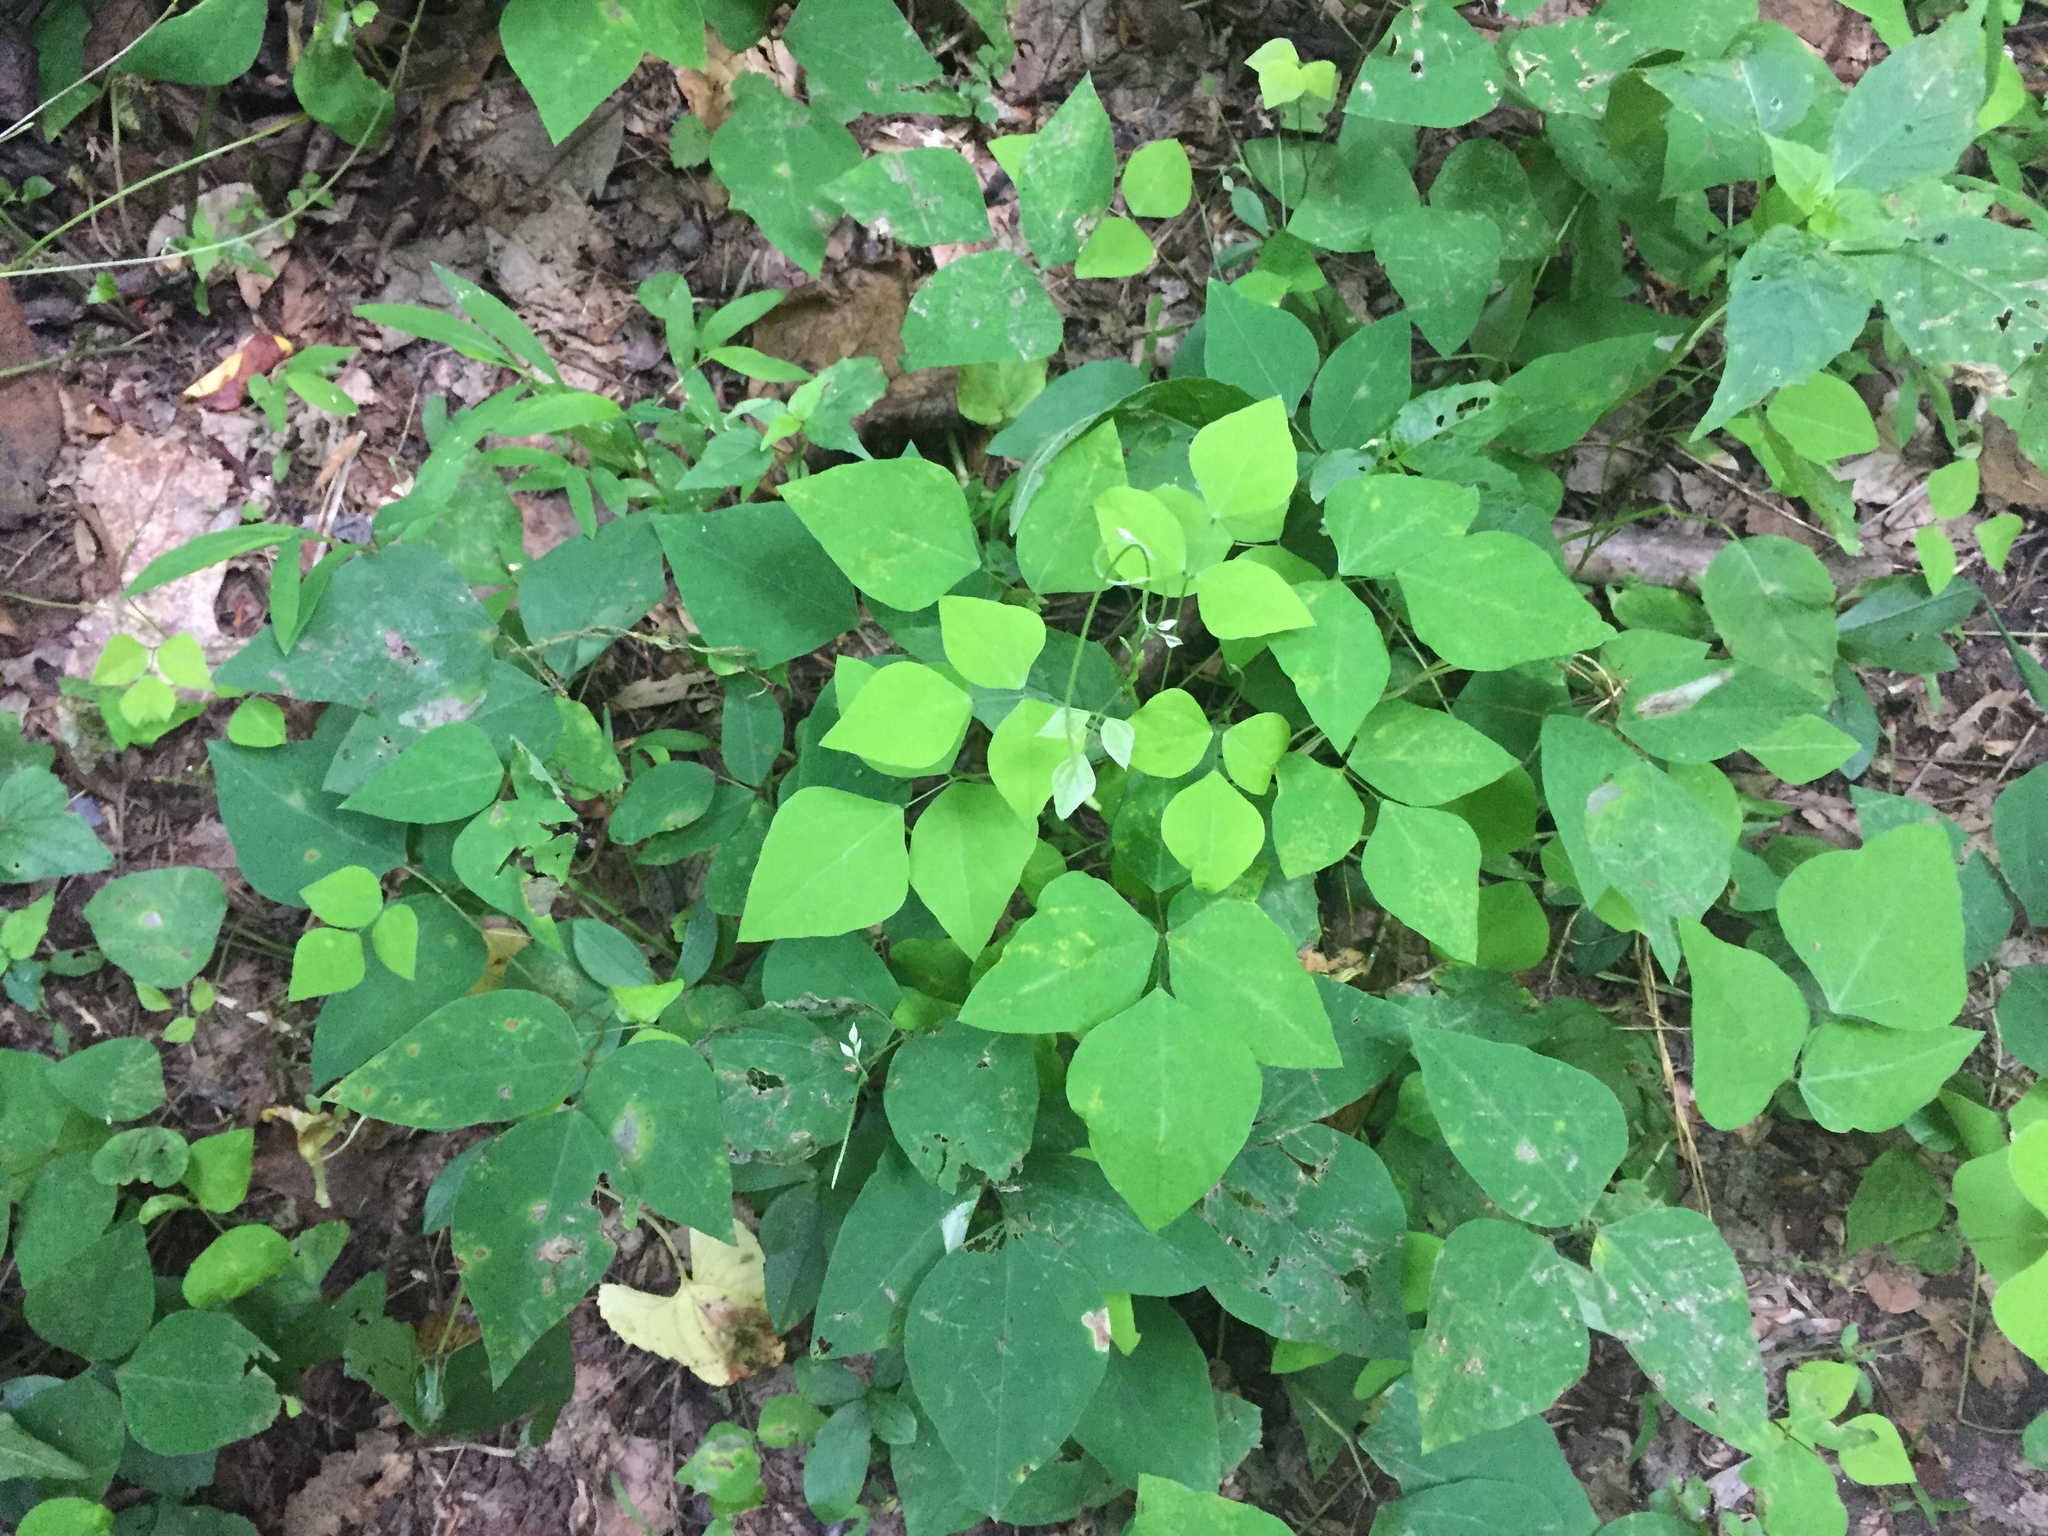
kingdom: Plantae
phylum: Tracheophyta
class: Magnoliopsida
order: Fabales
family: Fabaceae
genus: Amphicarpaea
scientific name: Amphicarpaea bracteata
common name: American hog peanut
